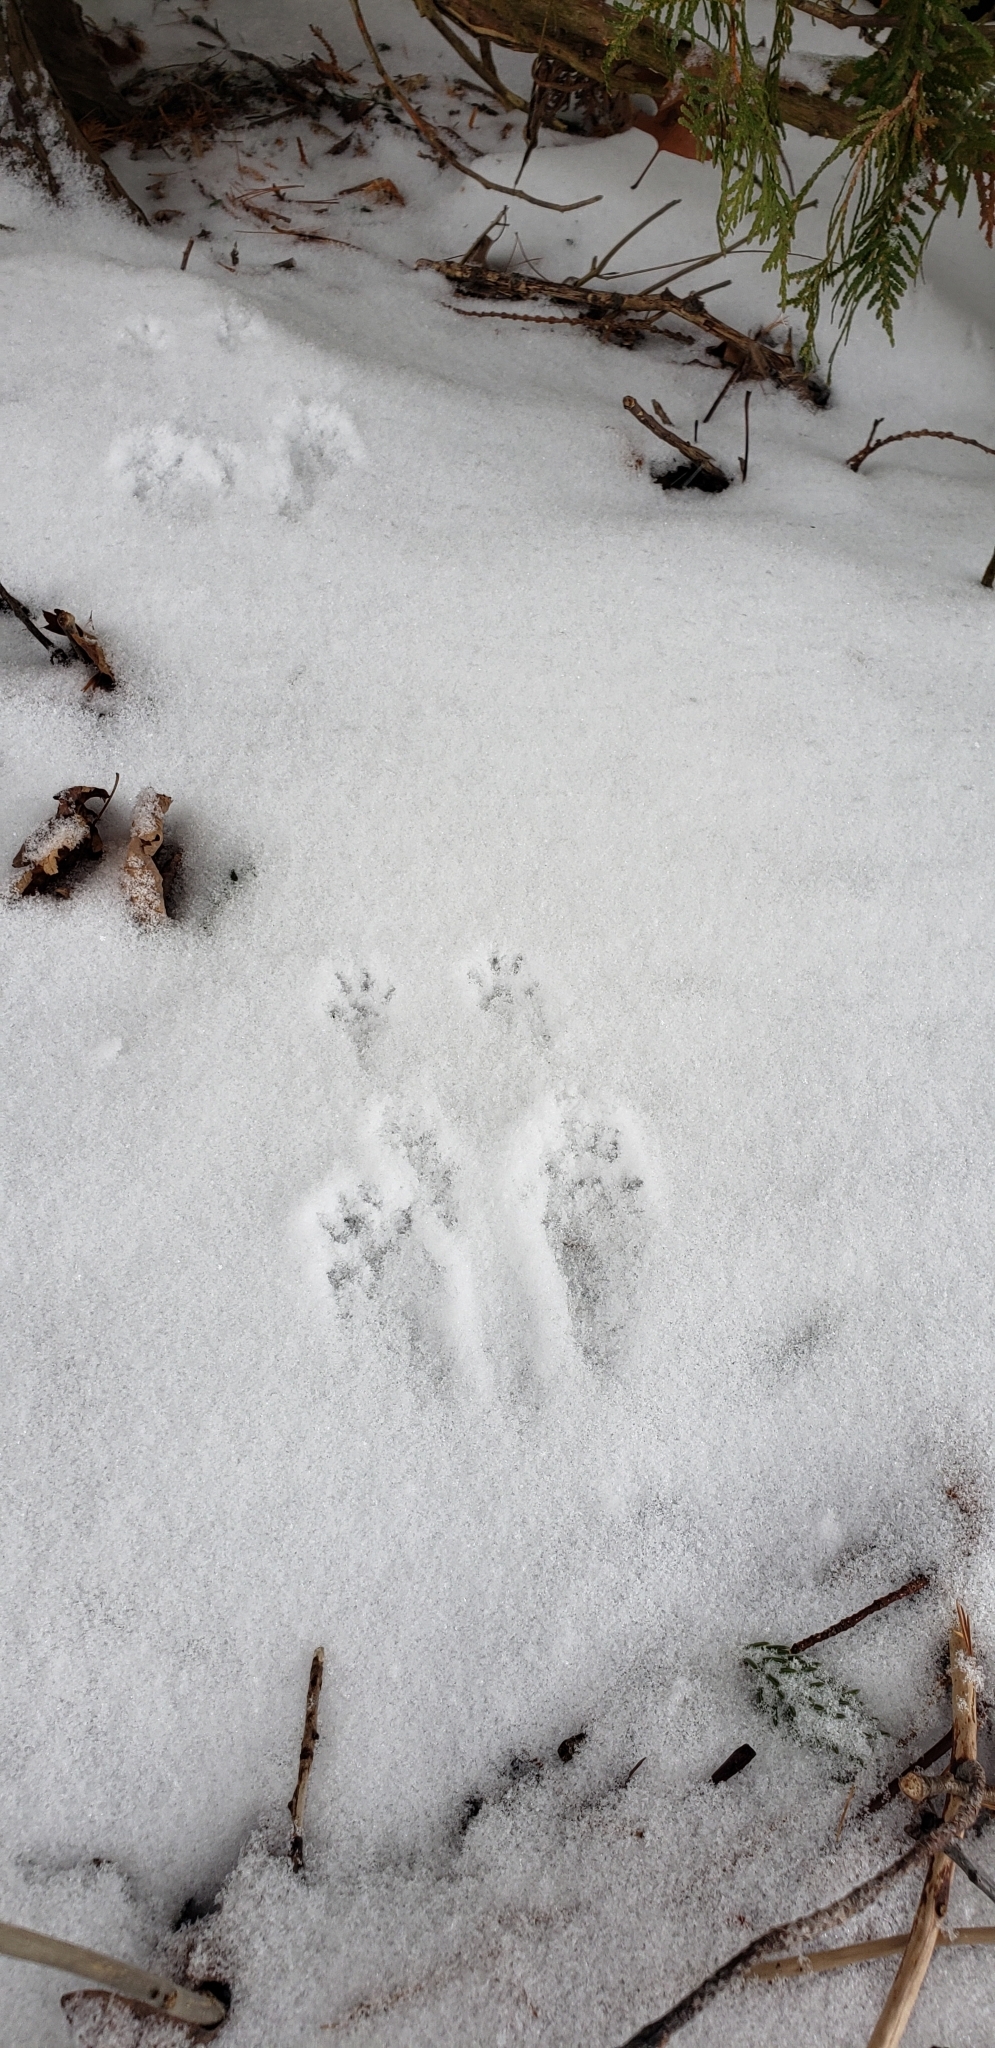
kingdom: Animalia
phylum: Chordata
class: Mammalia
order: Rodentia
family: Sciuridae
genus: Tamiasciurus
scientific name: Tamiasciurus hudsonicus
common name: Red squirrel
